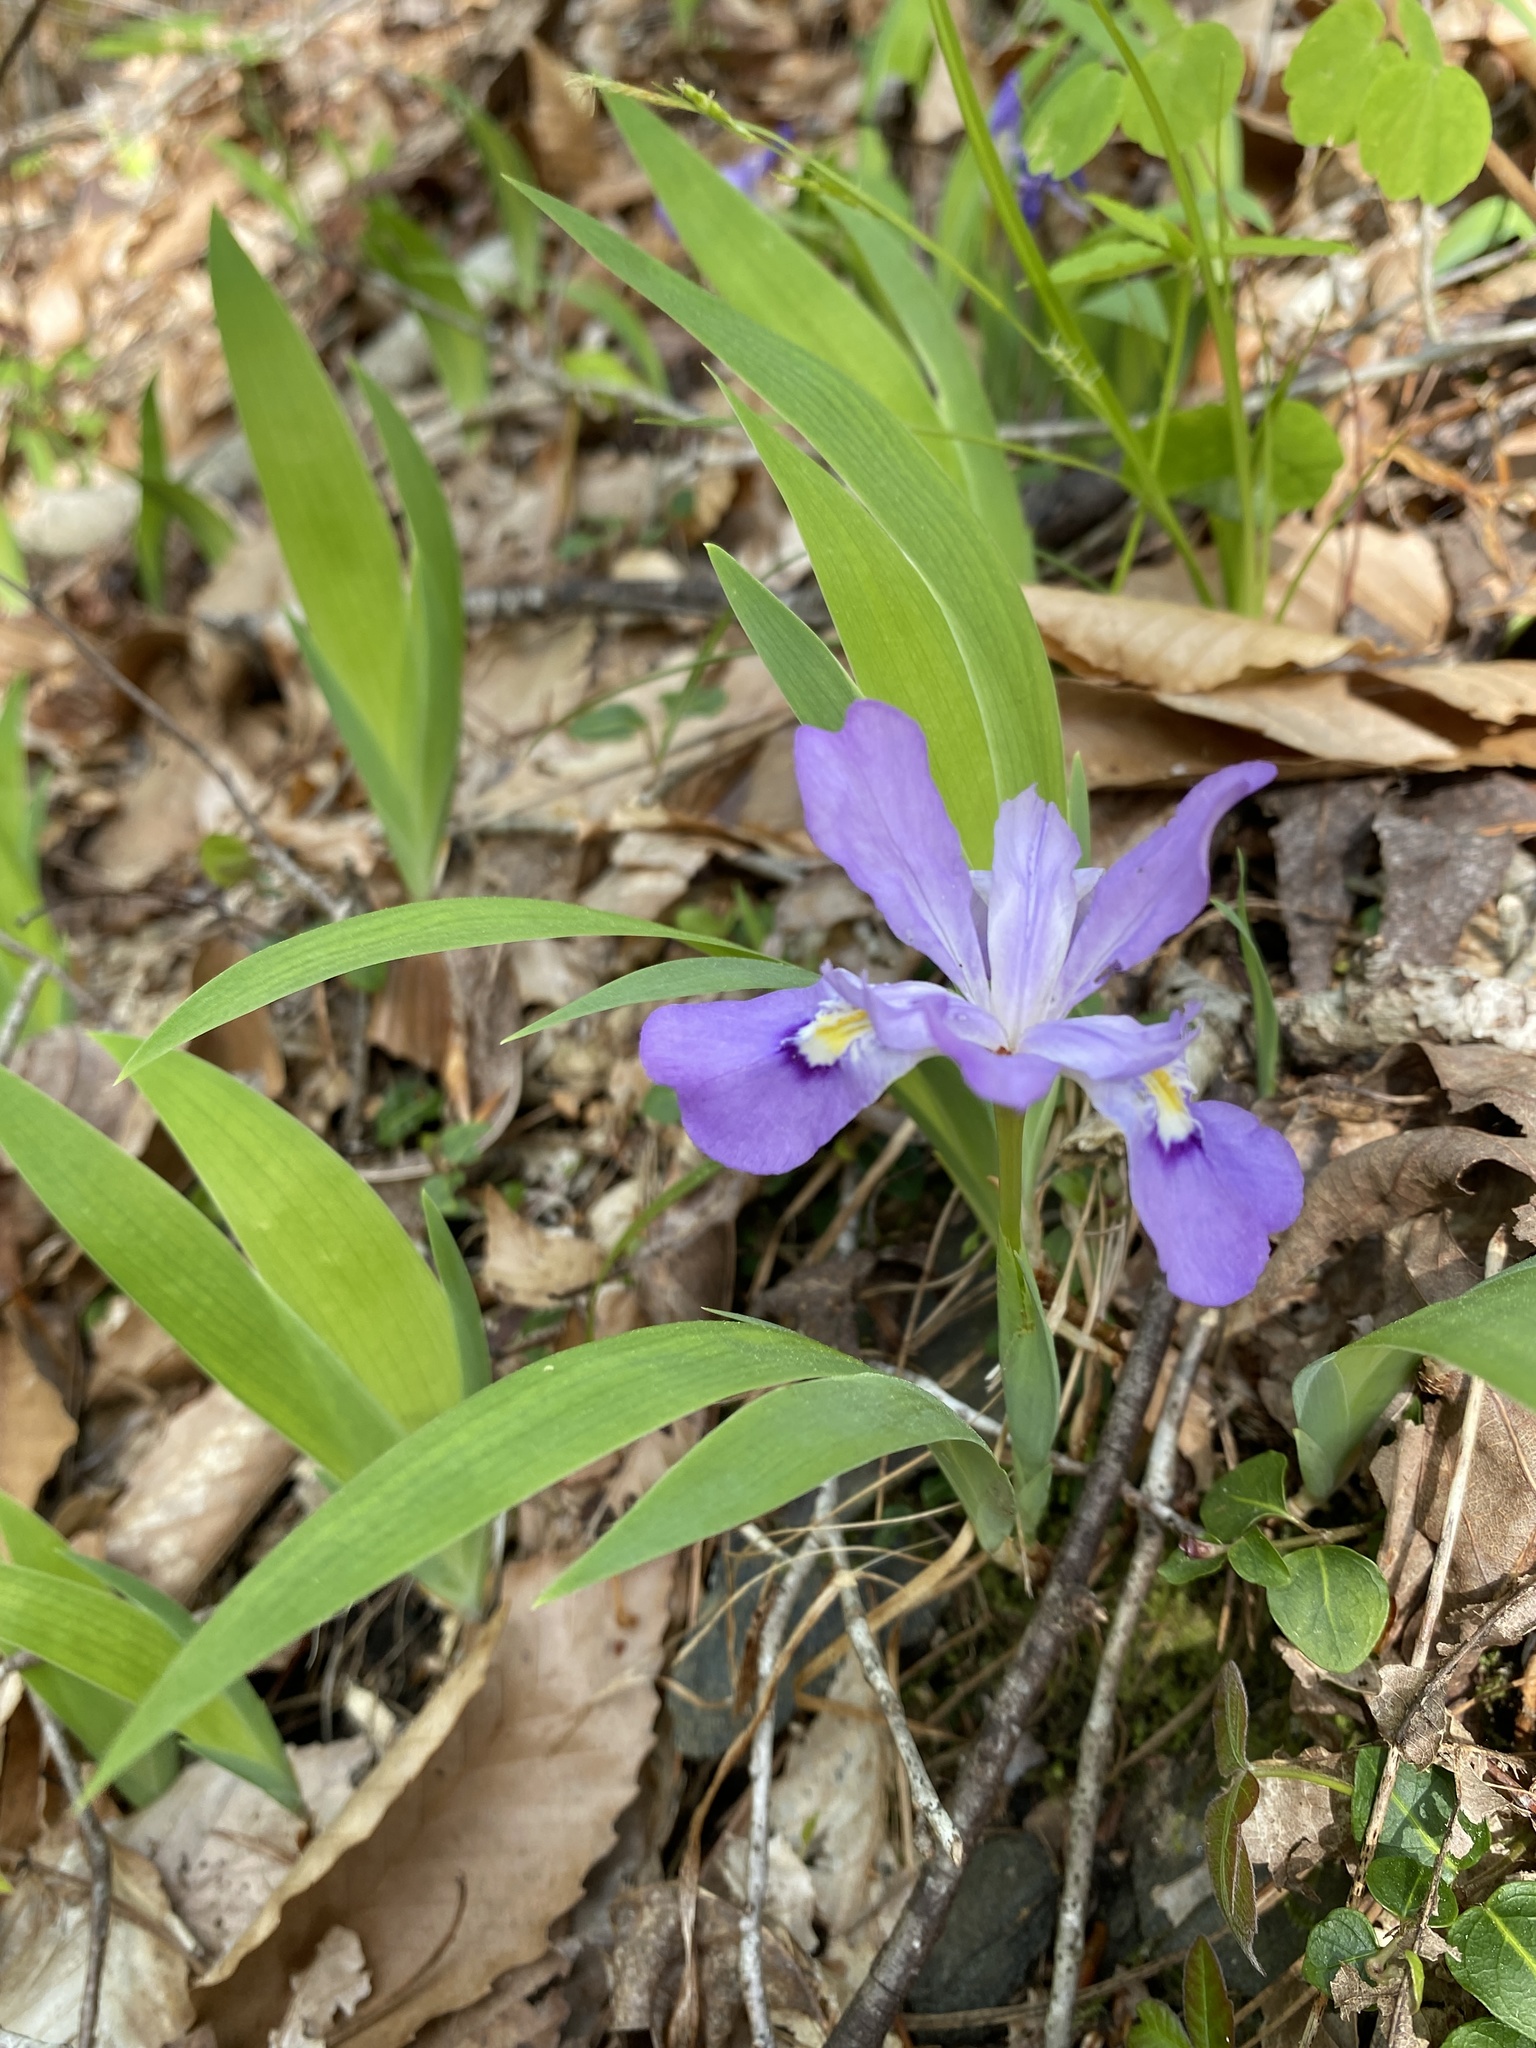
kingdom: Plantae
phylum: Tracheophyta
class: Liliopsida
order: Asparagales
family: Iridaceae
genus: Iris
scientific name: Iris cristata
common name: Crested iris
